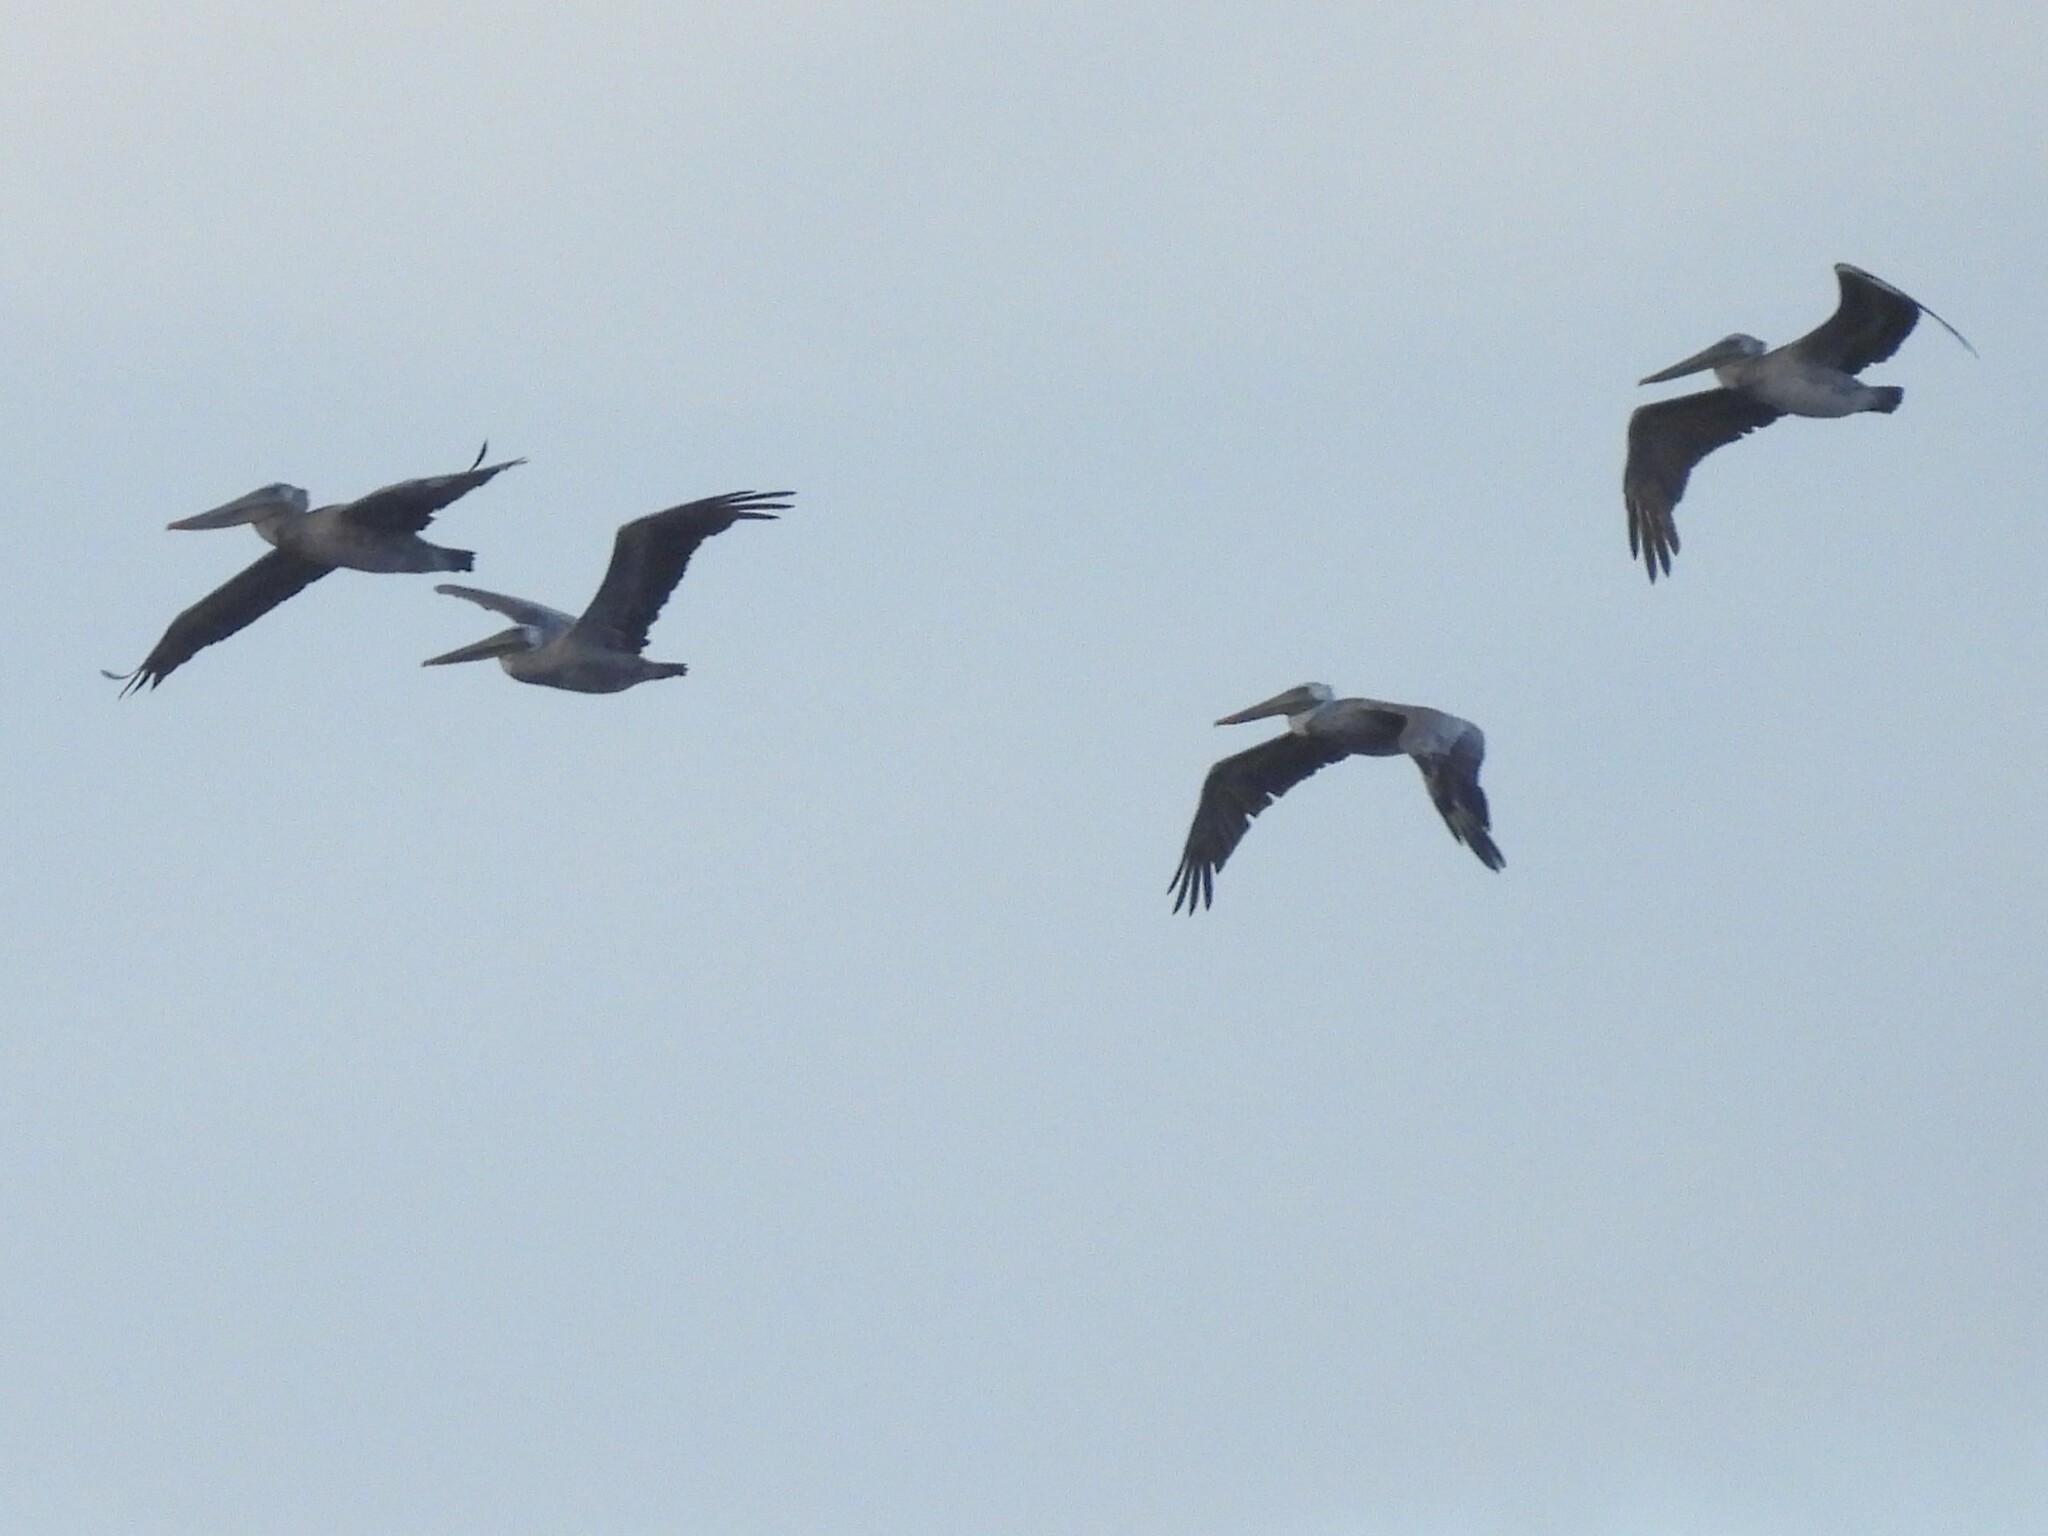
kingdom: Animalia
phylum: Chordata
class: Aves
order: Pelecaniformes
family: Pelecanidae
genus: Pelecanus
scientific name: Pelecanus occidentalis
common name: Brown pelican
